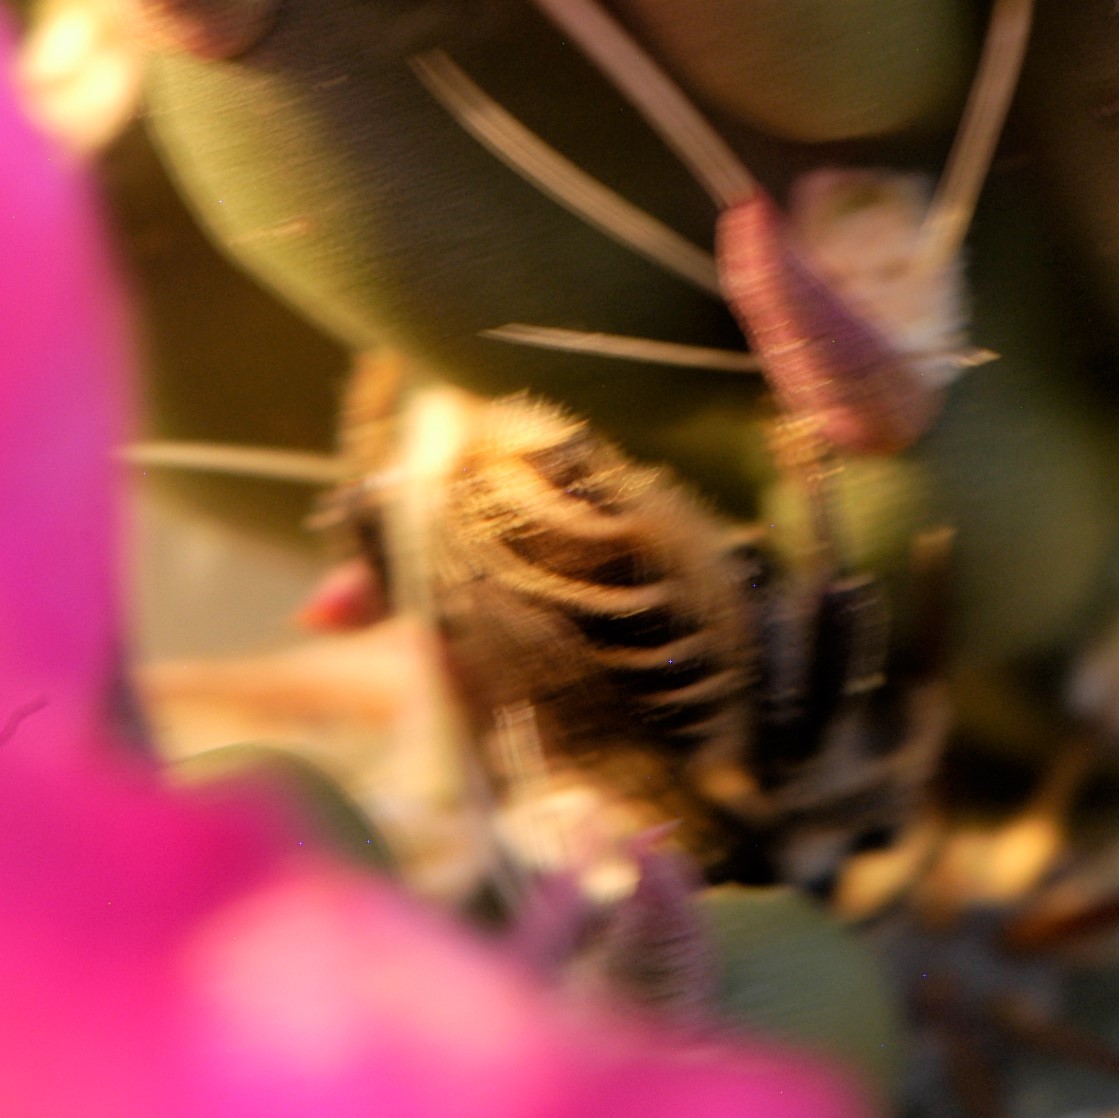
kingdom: Animalia
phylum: Arthropoda
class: Insecta
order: Hymenoptera
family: Megachilidae
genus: Lithurgopsis
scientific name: Lithurgopsis apicalis
